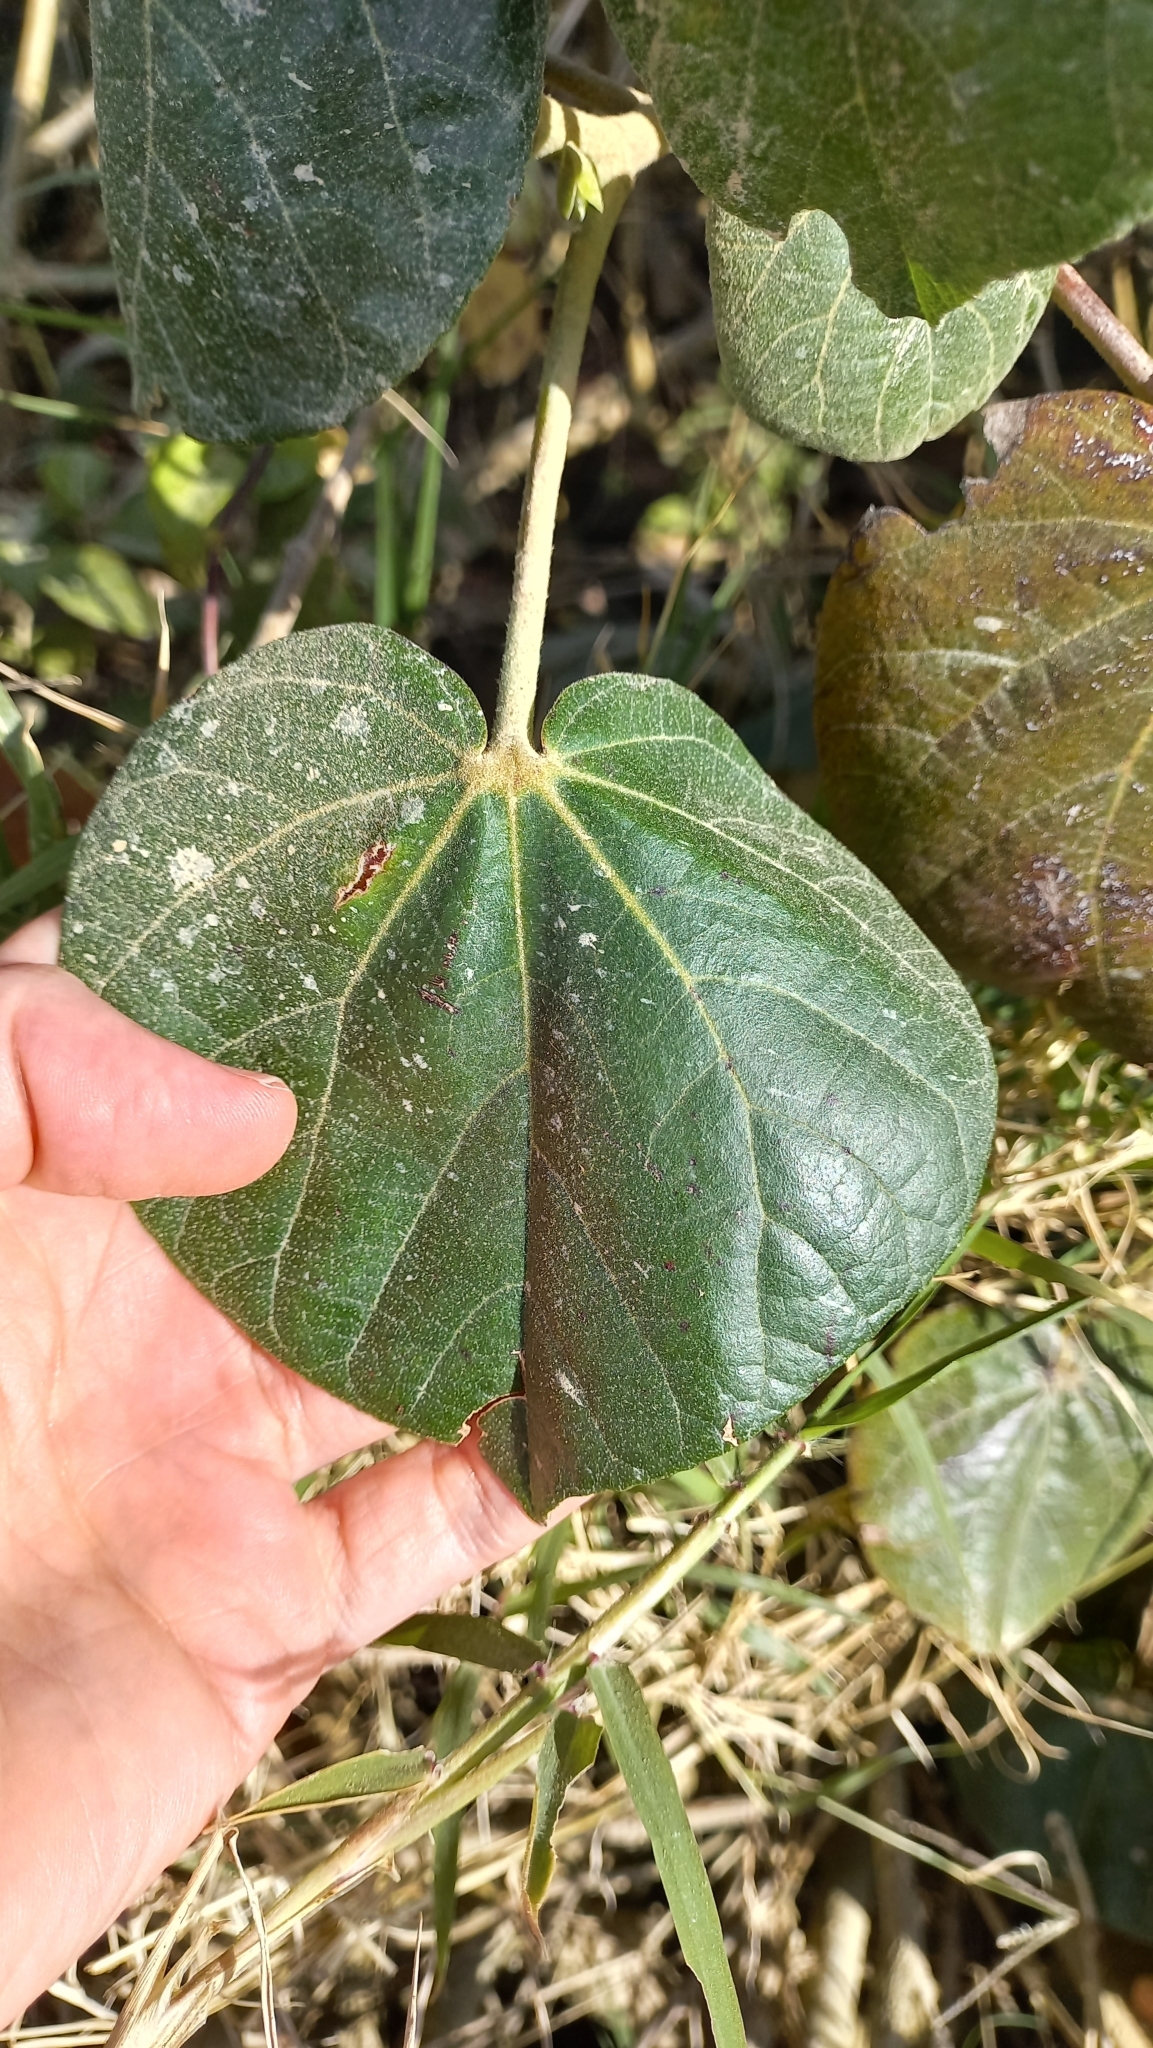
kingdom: Plantae
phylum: Tracheophyta
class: Magnoliopsida
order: Malvales
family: Malvaceae
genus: Talipariti
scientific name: Talipariti pernambucense
